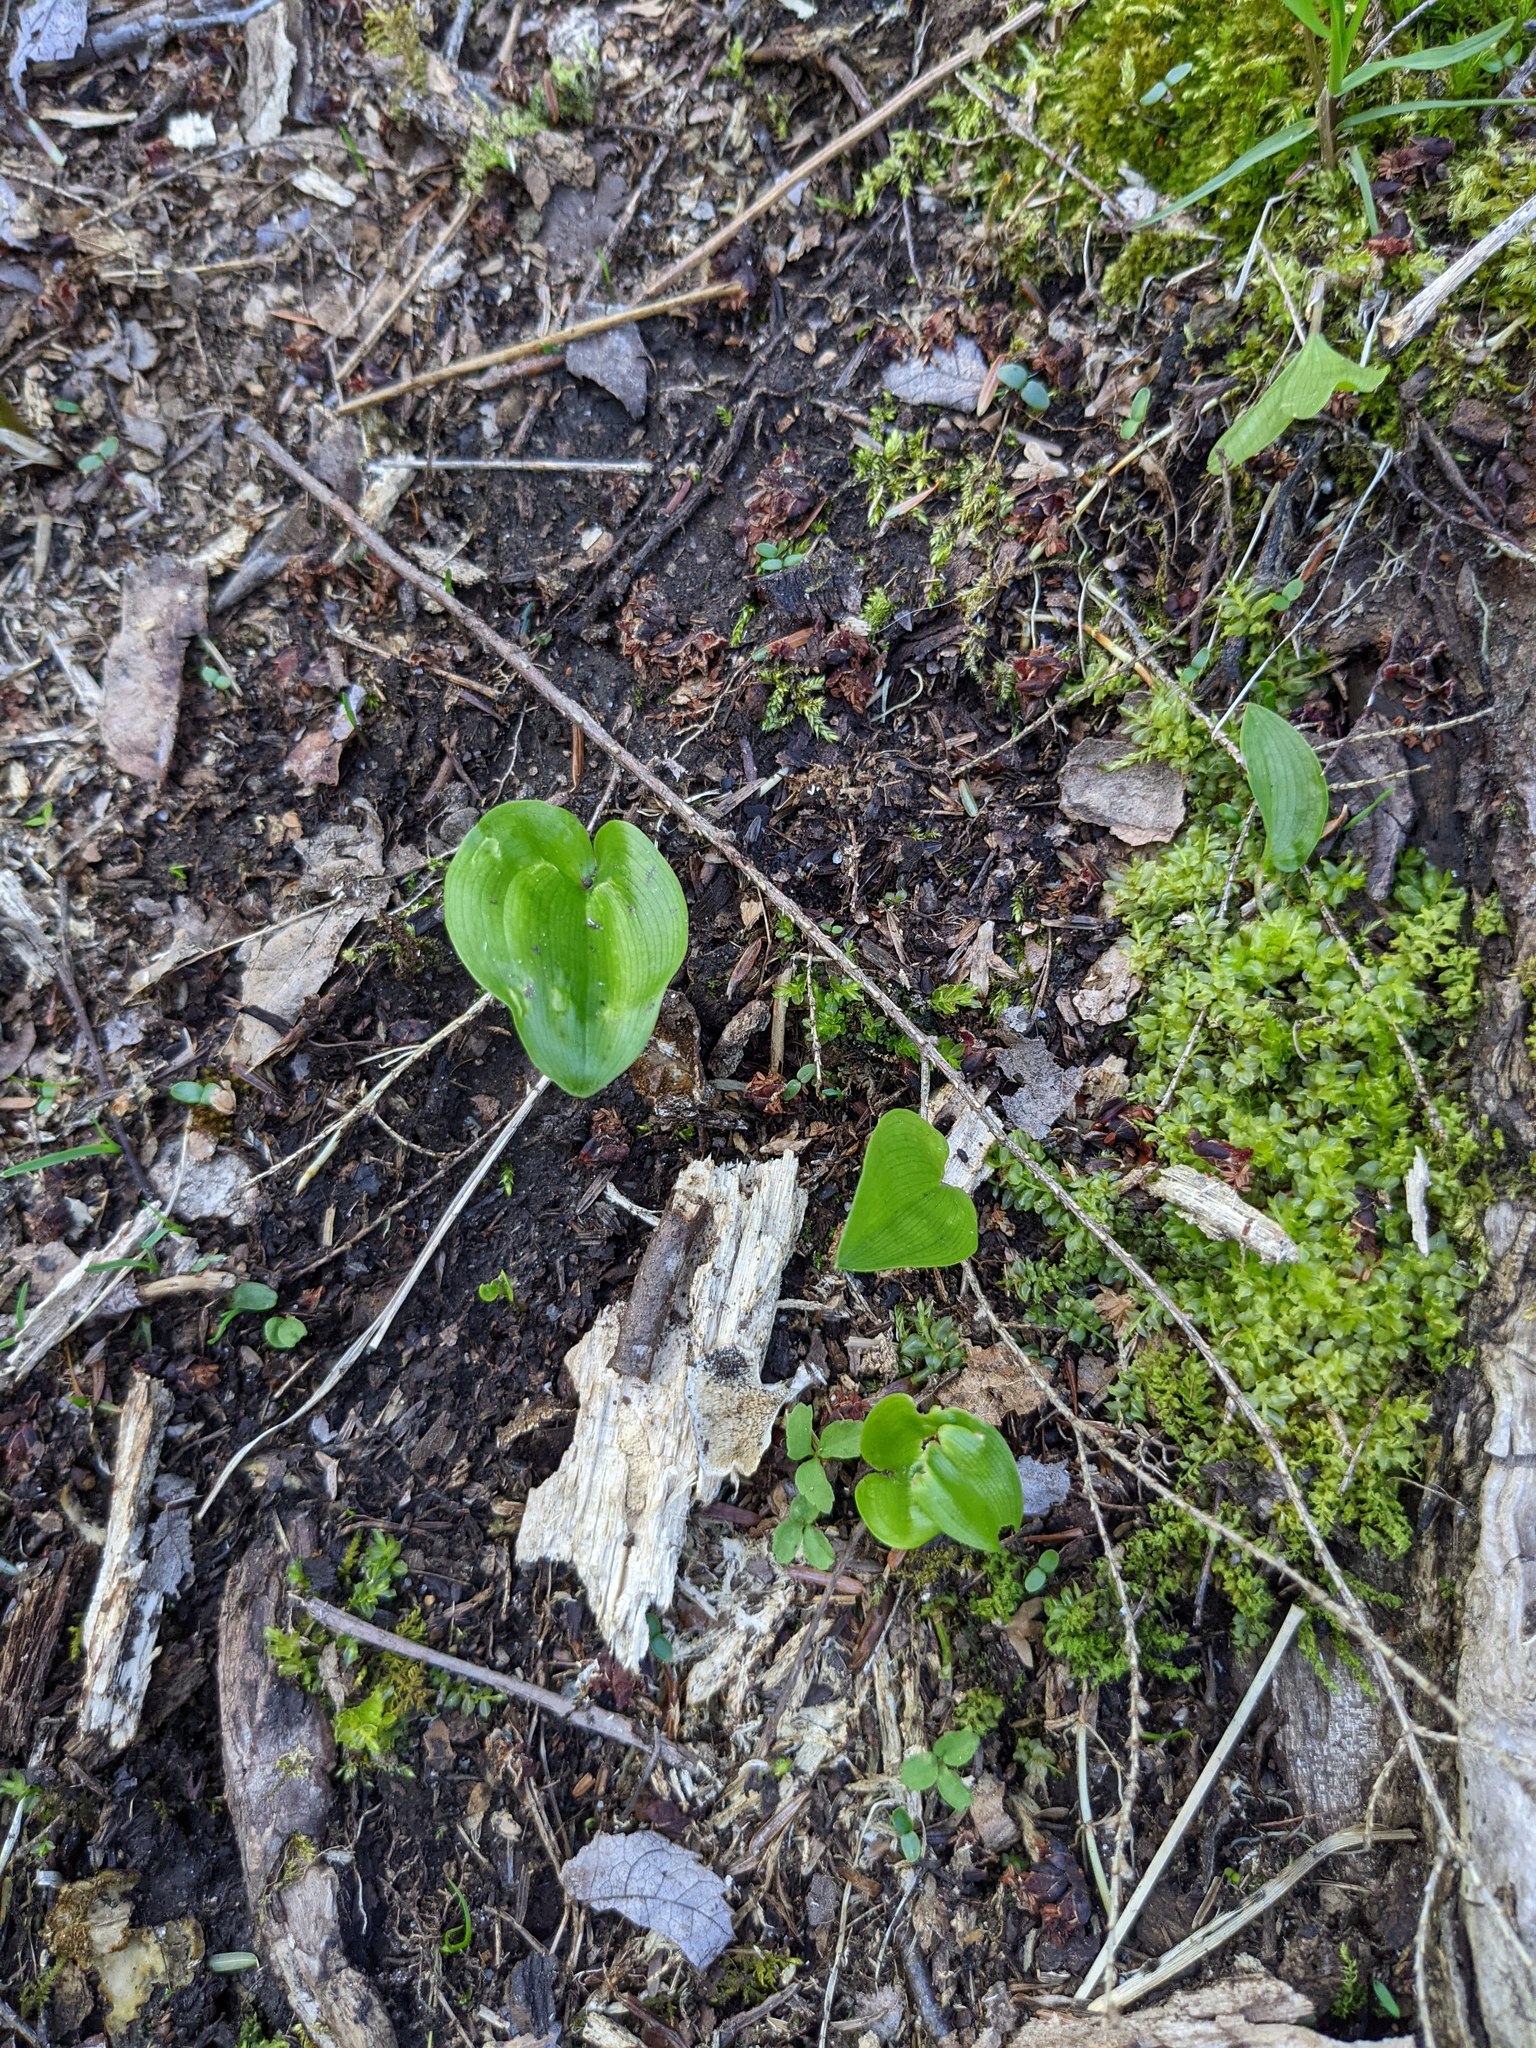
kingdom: Plantae
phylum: Tracheophyta
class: Liliopsida
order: Asparagales
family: Asparagaceae
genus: Maianthemum
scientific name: Maianthemum canadense
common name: False lily-of-the-valley
